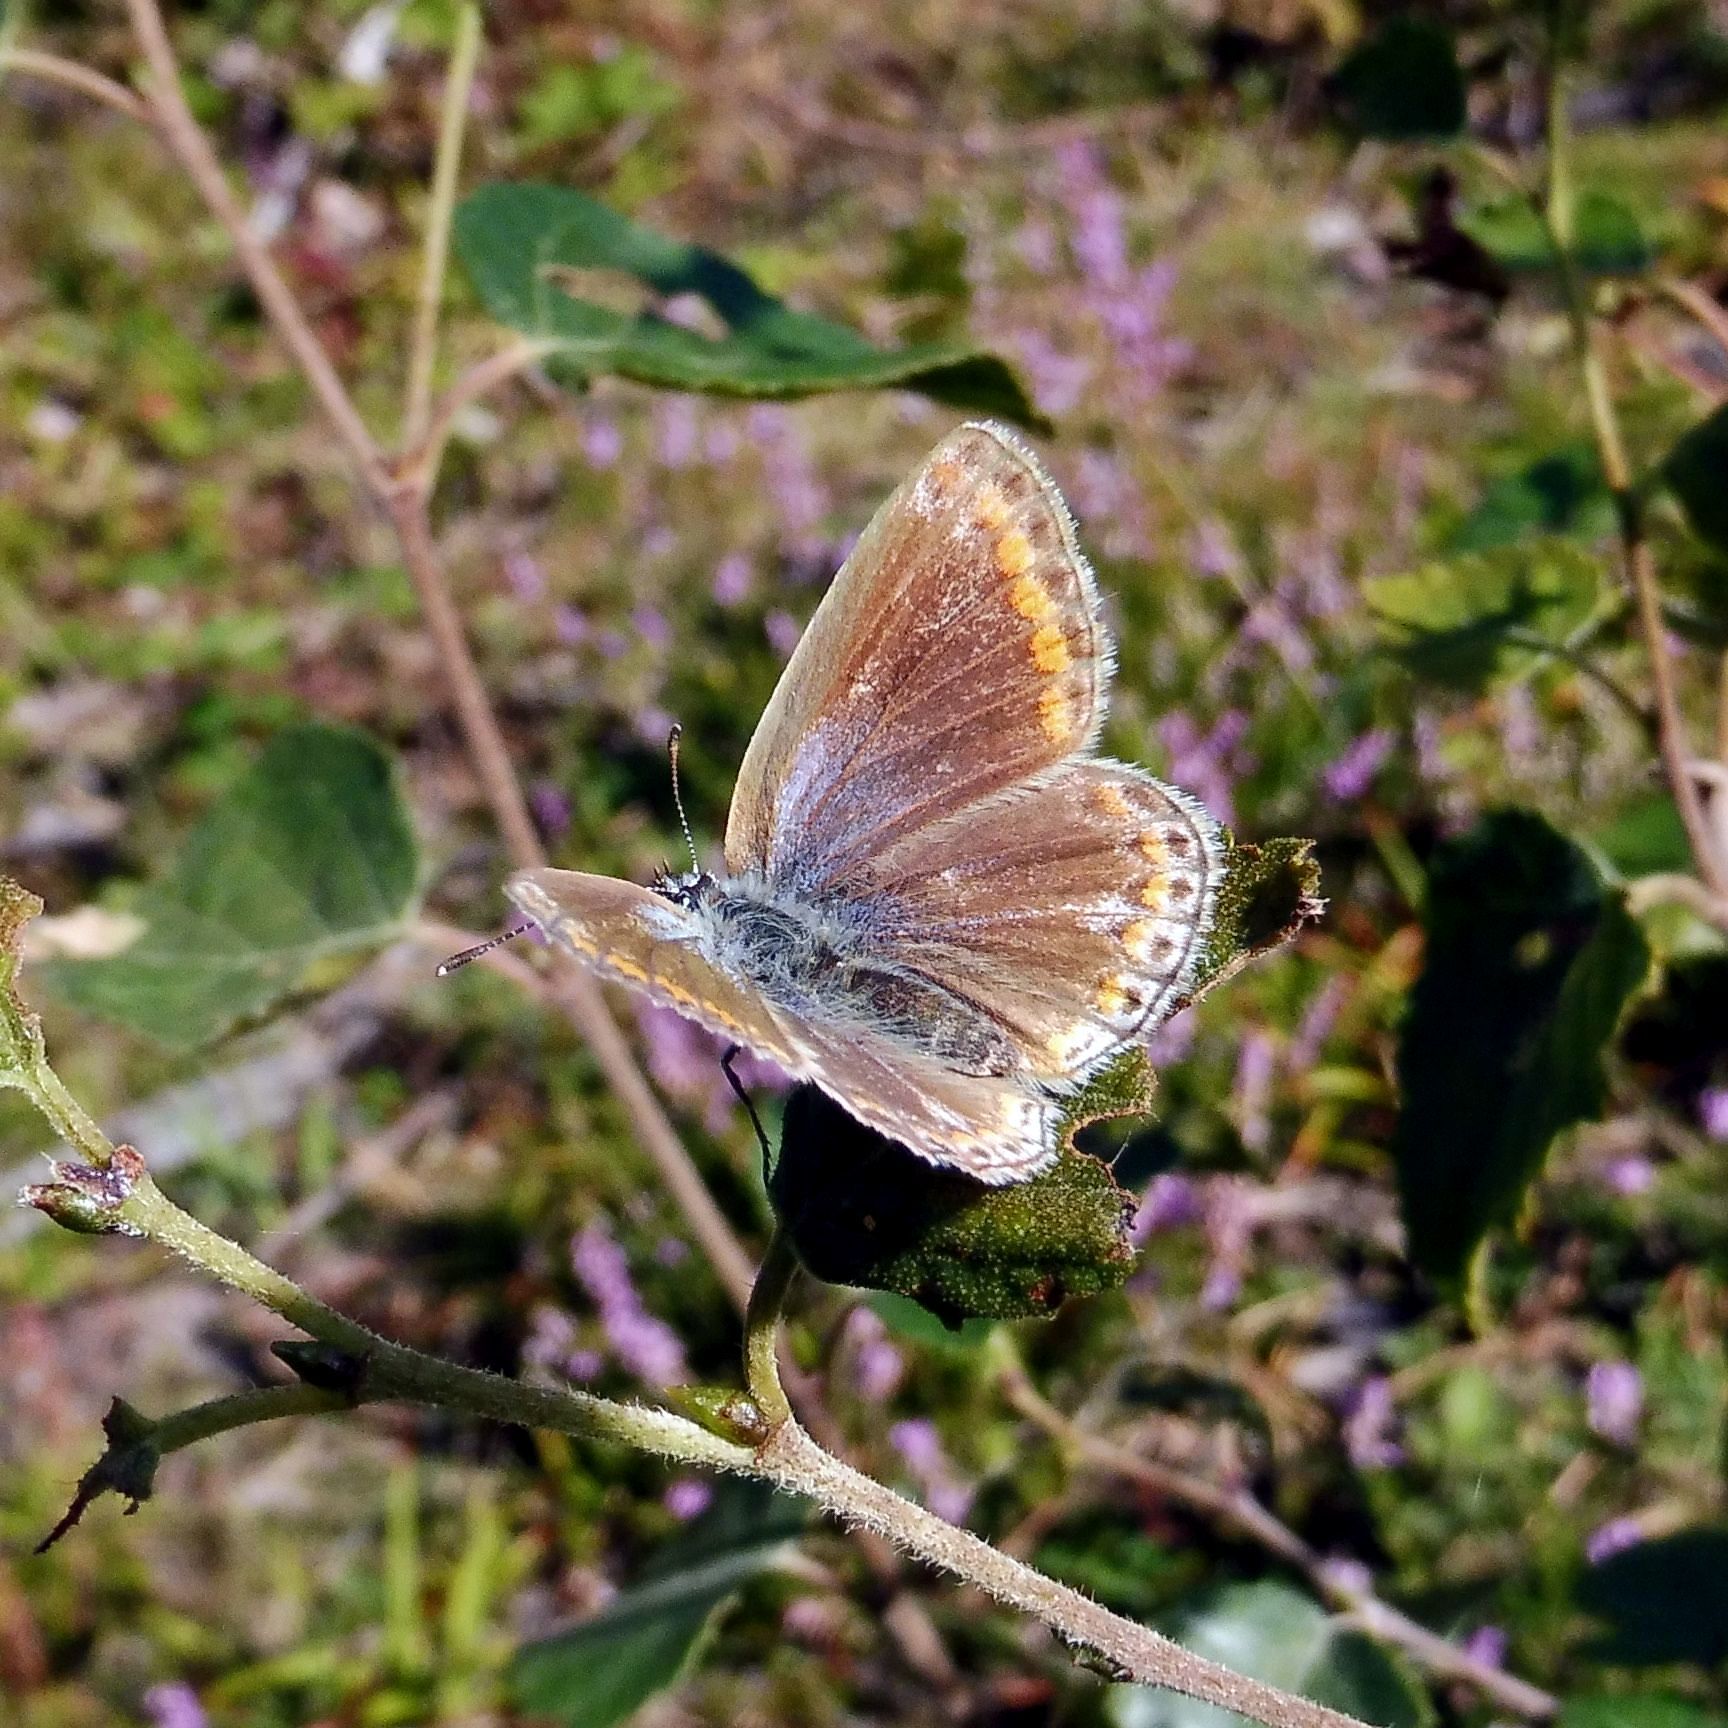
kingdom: Animalia
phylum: Arthropoda
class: Insecta
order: Lepidoptera
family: Lycaenidae
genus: Polyommatus
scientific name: Polyommatus icarus
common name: Common blue
